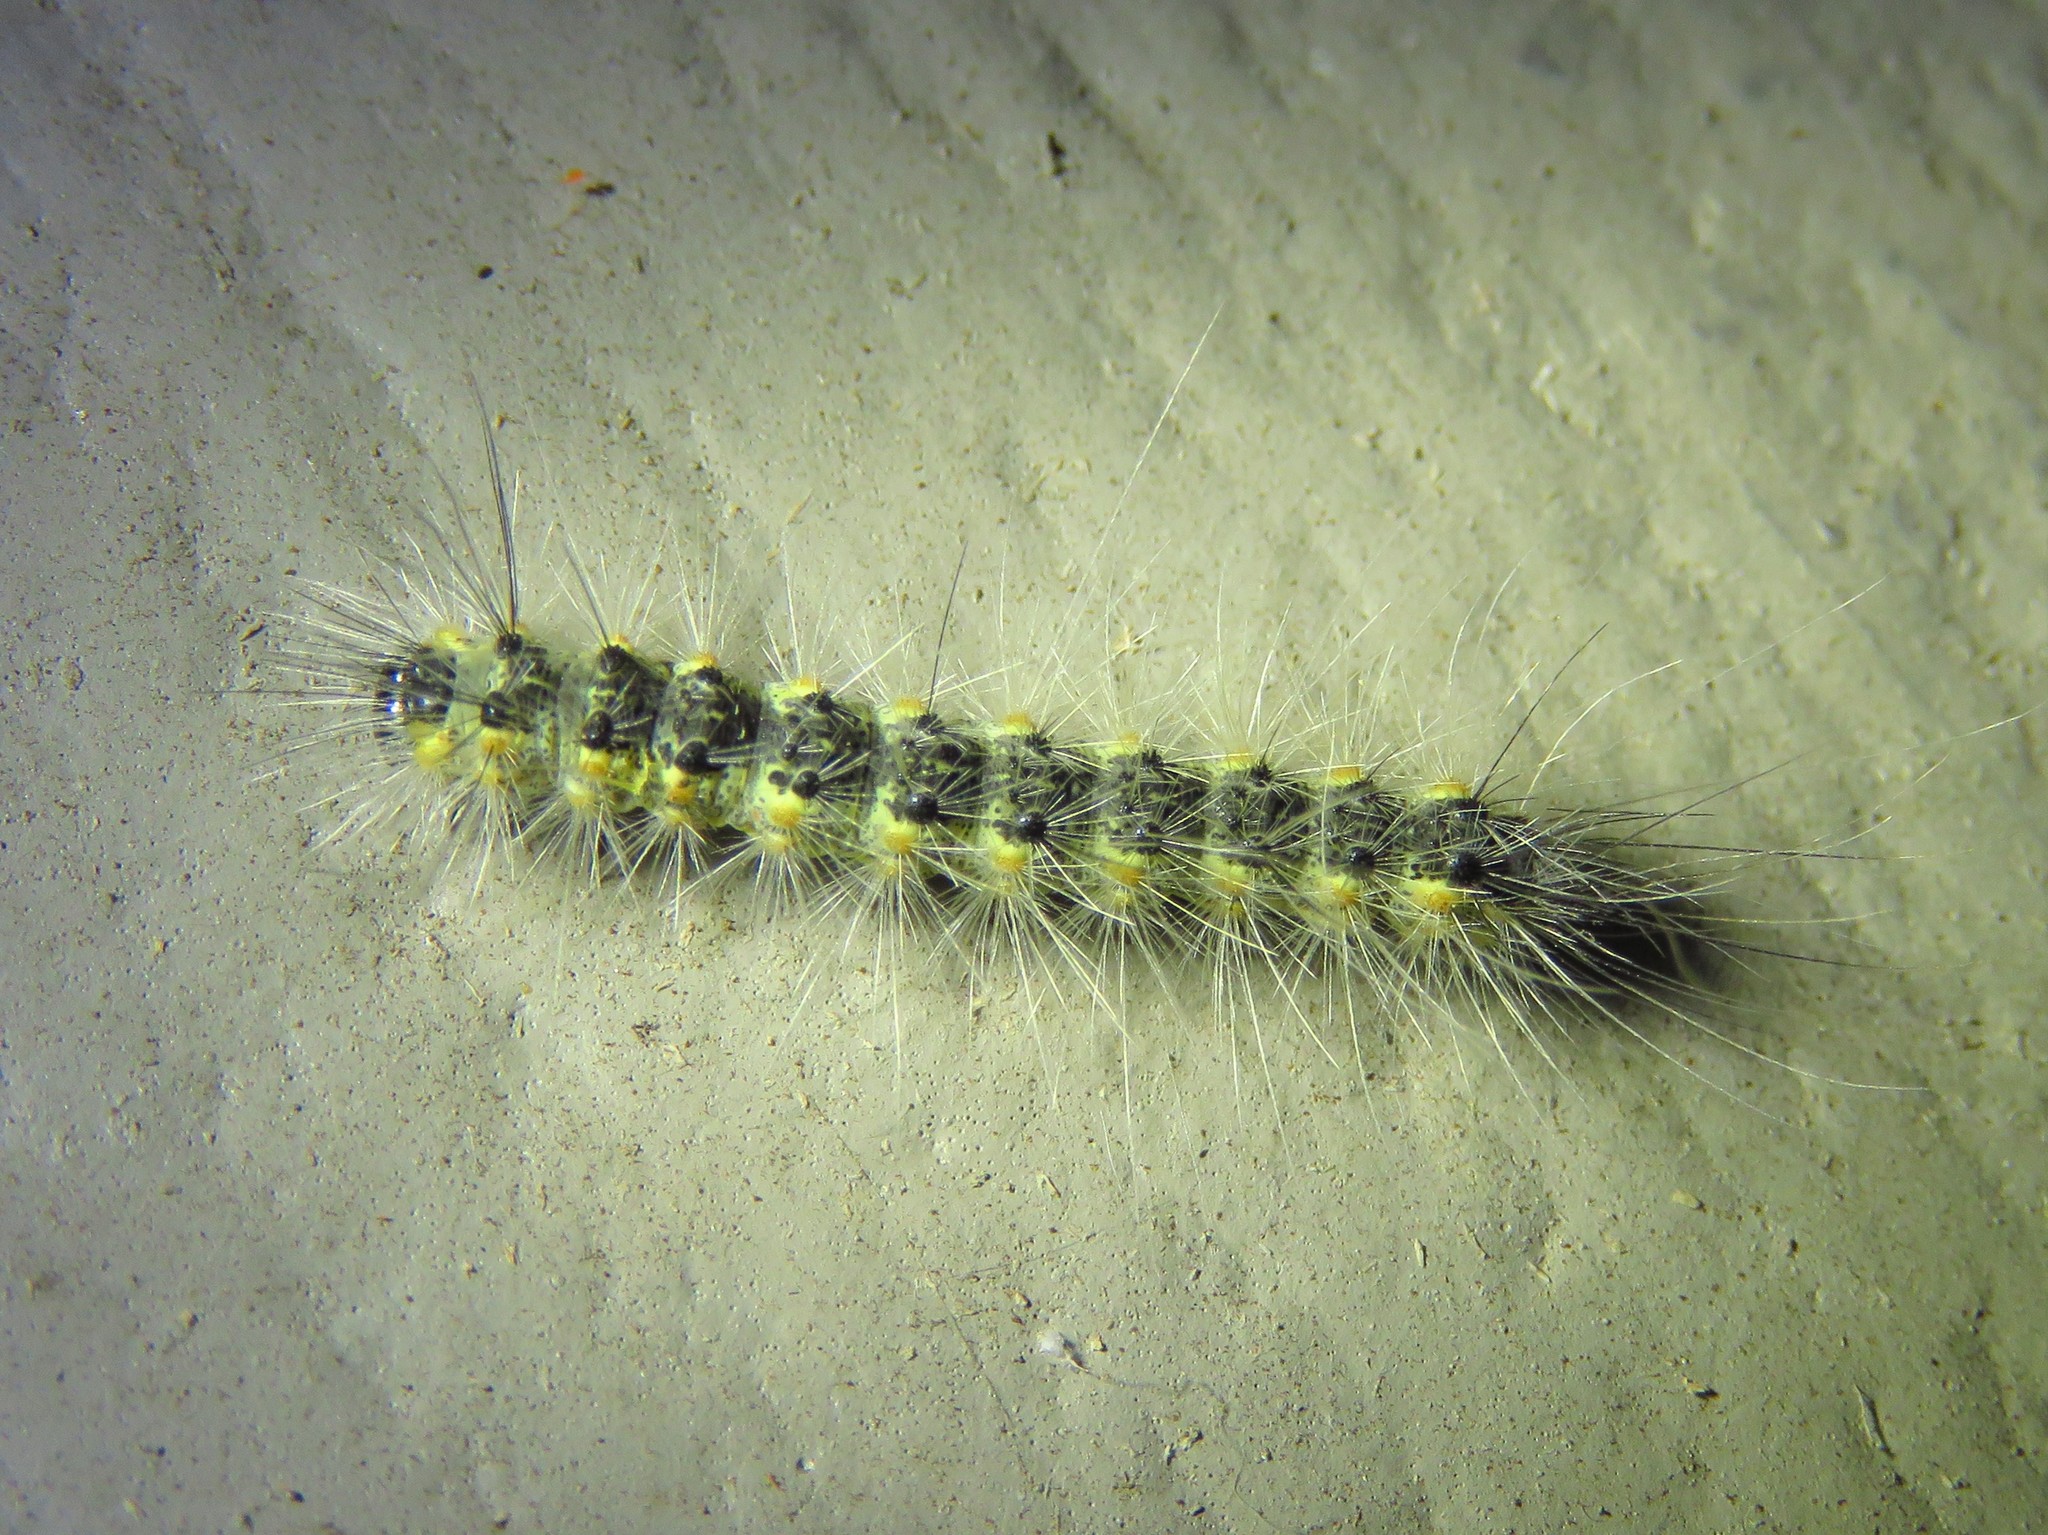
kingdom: Animalia
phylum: Arthropoda
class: Insecta
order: Lepidoptera
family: Erebidae
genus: Hyphantria
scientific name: Hyphantria cunea
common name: American white moth
